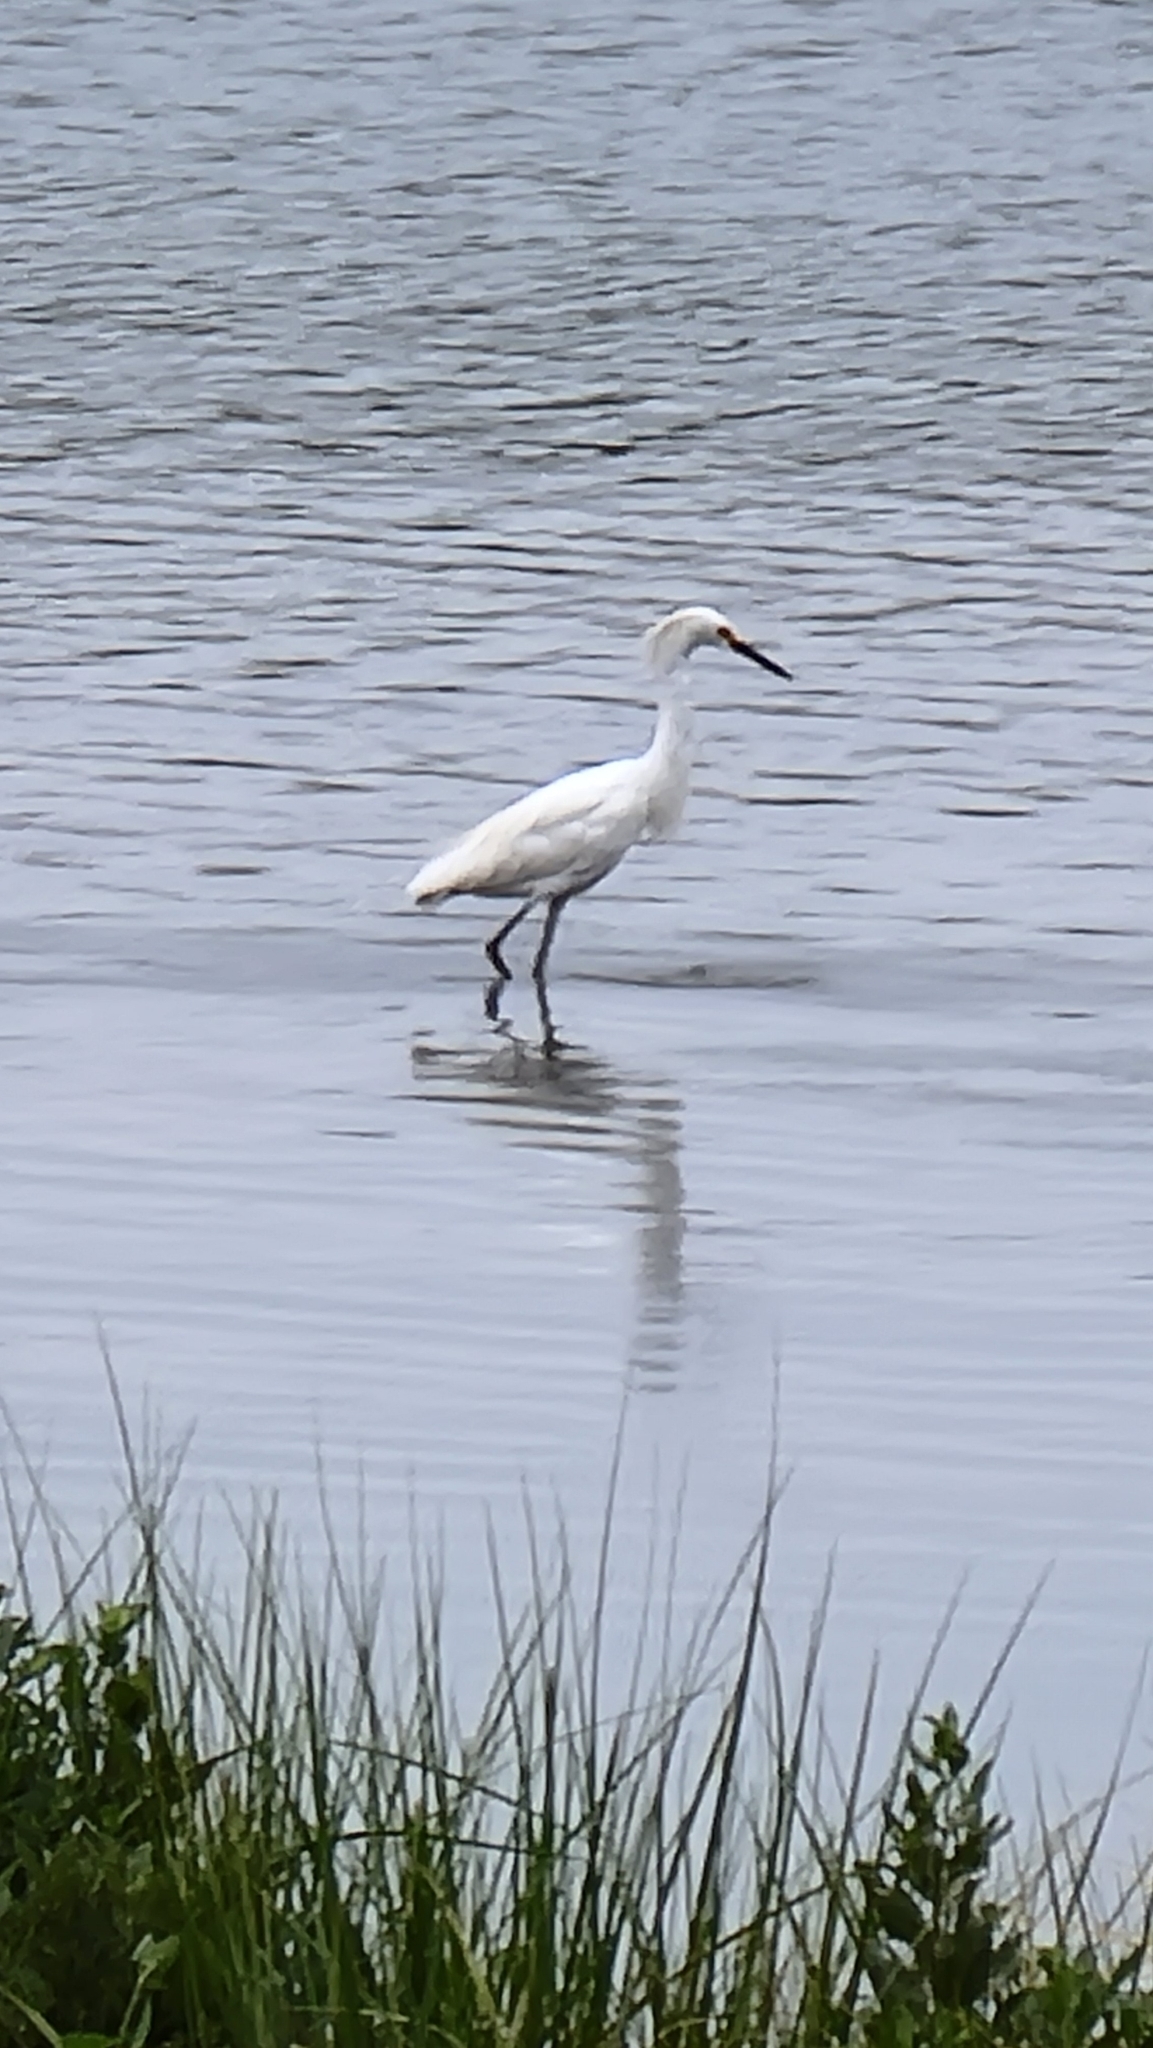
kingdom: Animalia
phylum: Chordata
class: Aves
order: Pelecaniformes
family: Ardeidae
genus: Egretta
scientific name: Egretta thula
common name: Snowy egret
